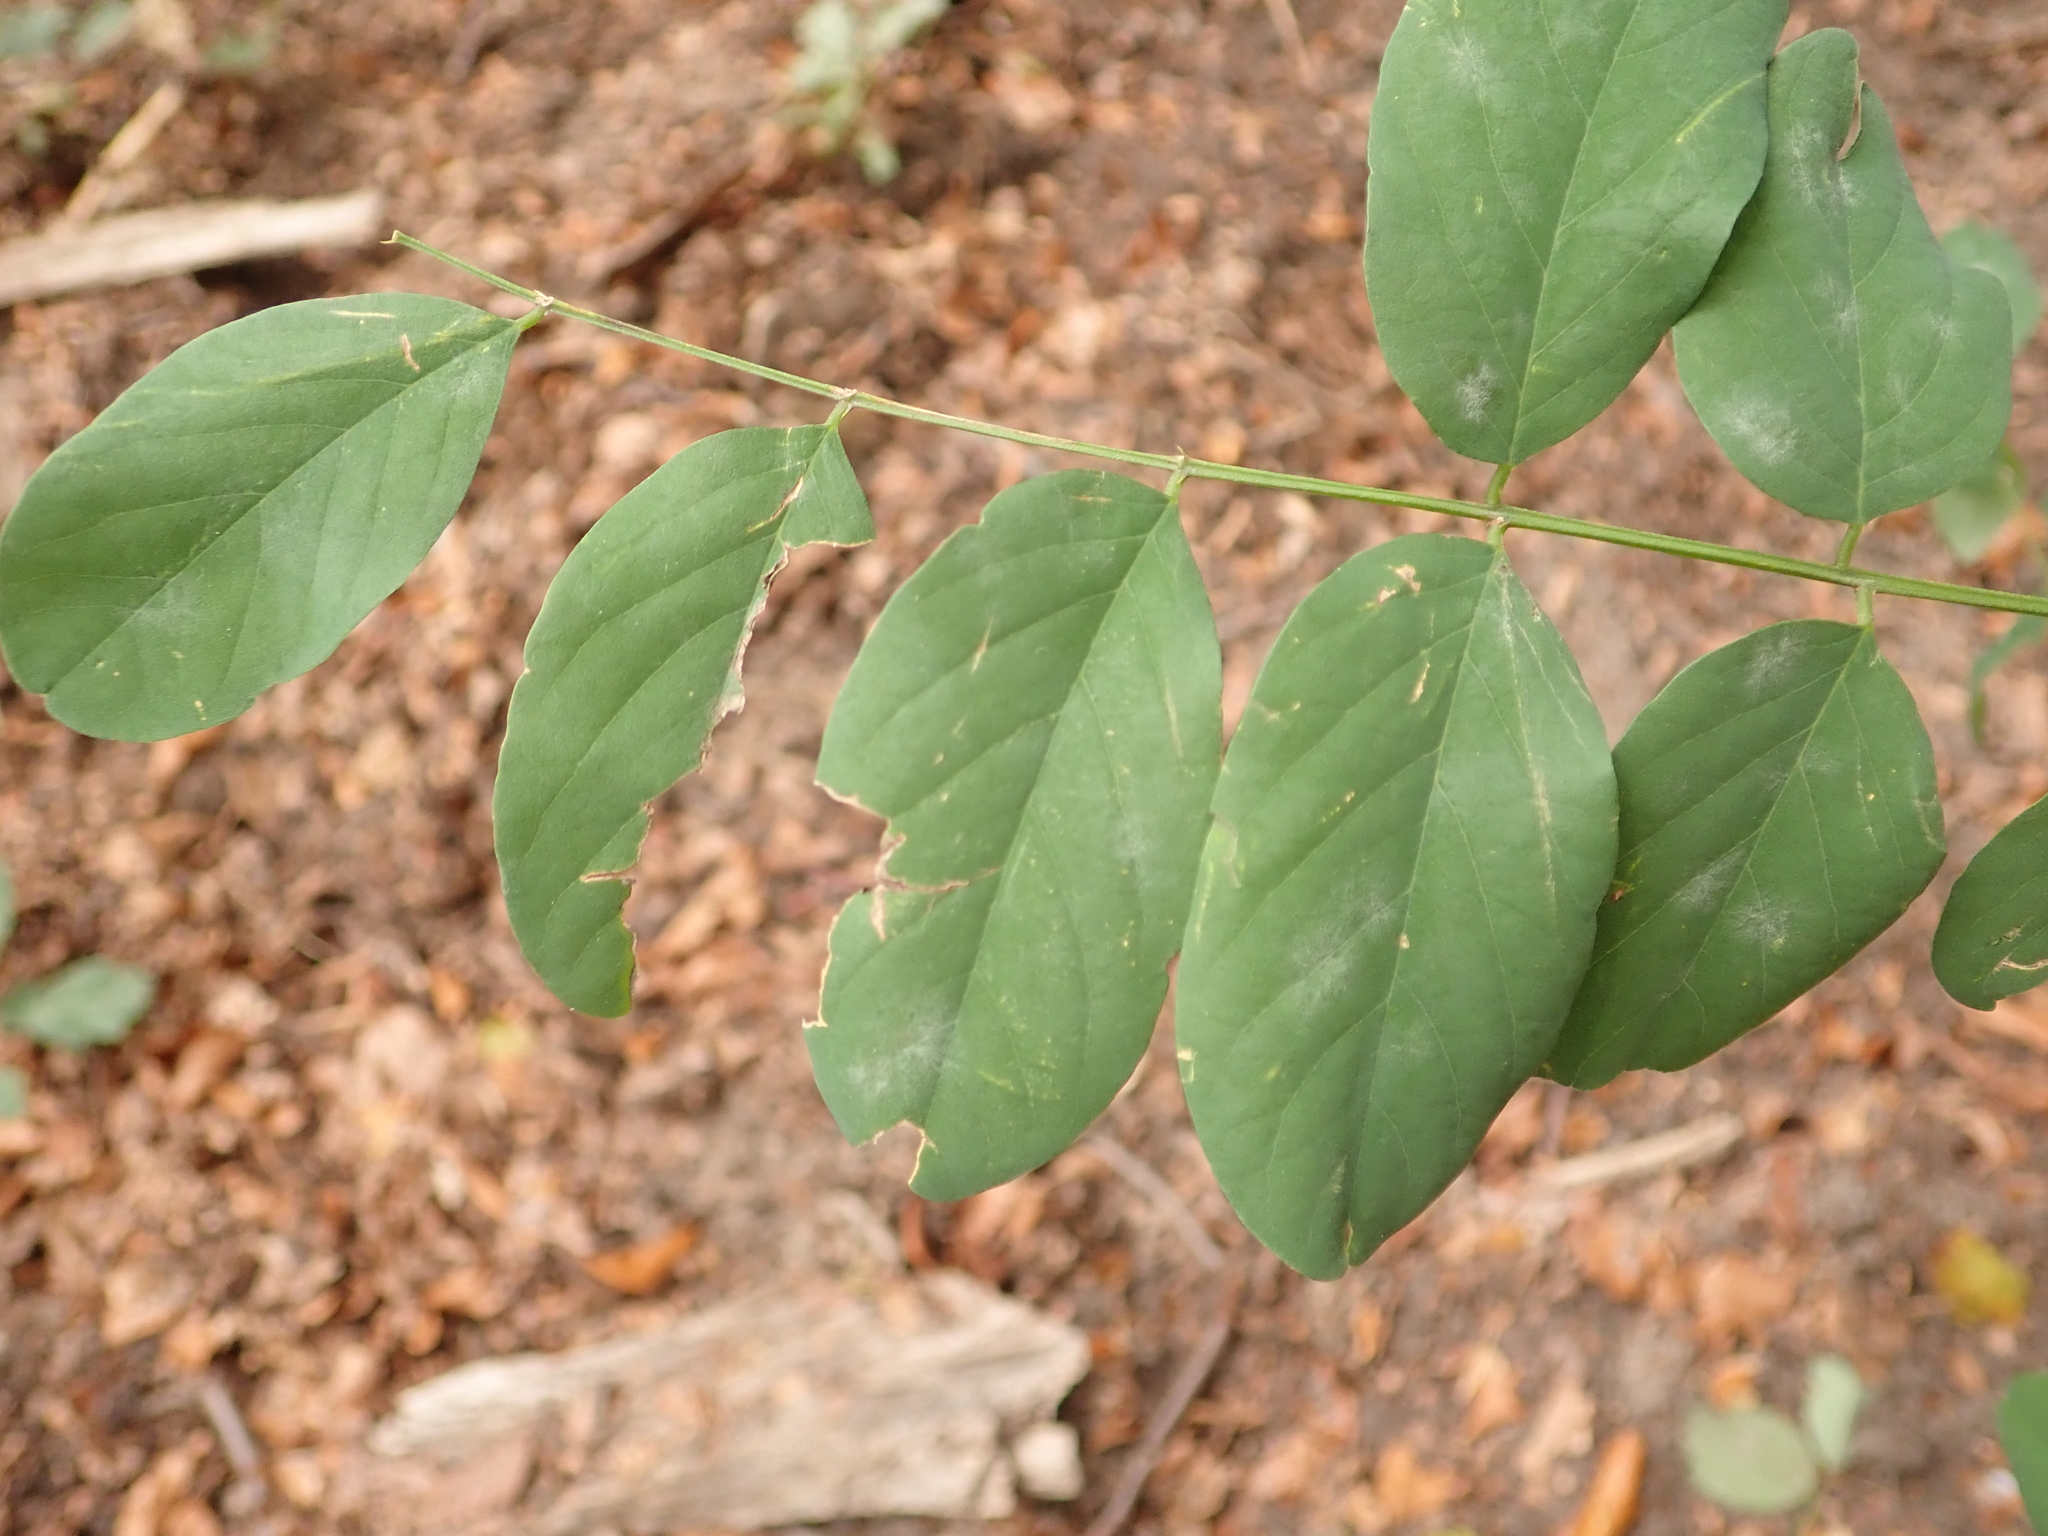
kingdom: Plantae
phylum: Tracheophyta
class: Magnoliopsida
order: Fabales
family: Fabaceae
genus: Robinia
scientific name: Robinia pseudoacacia
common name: Black locust
